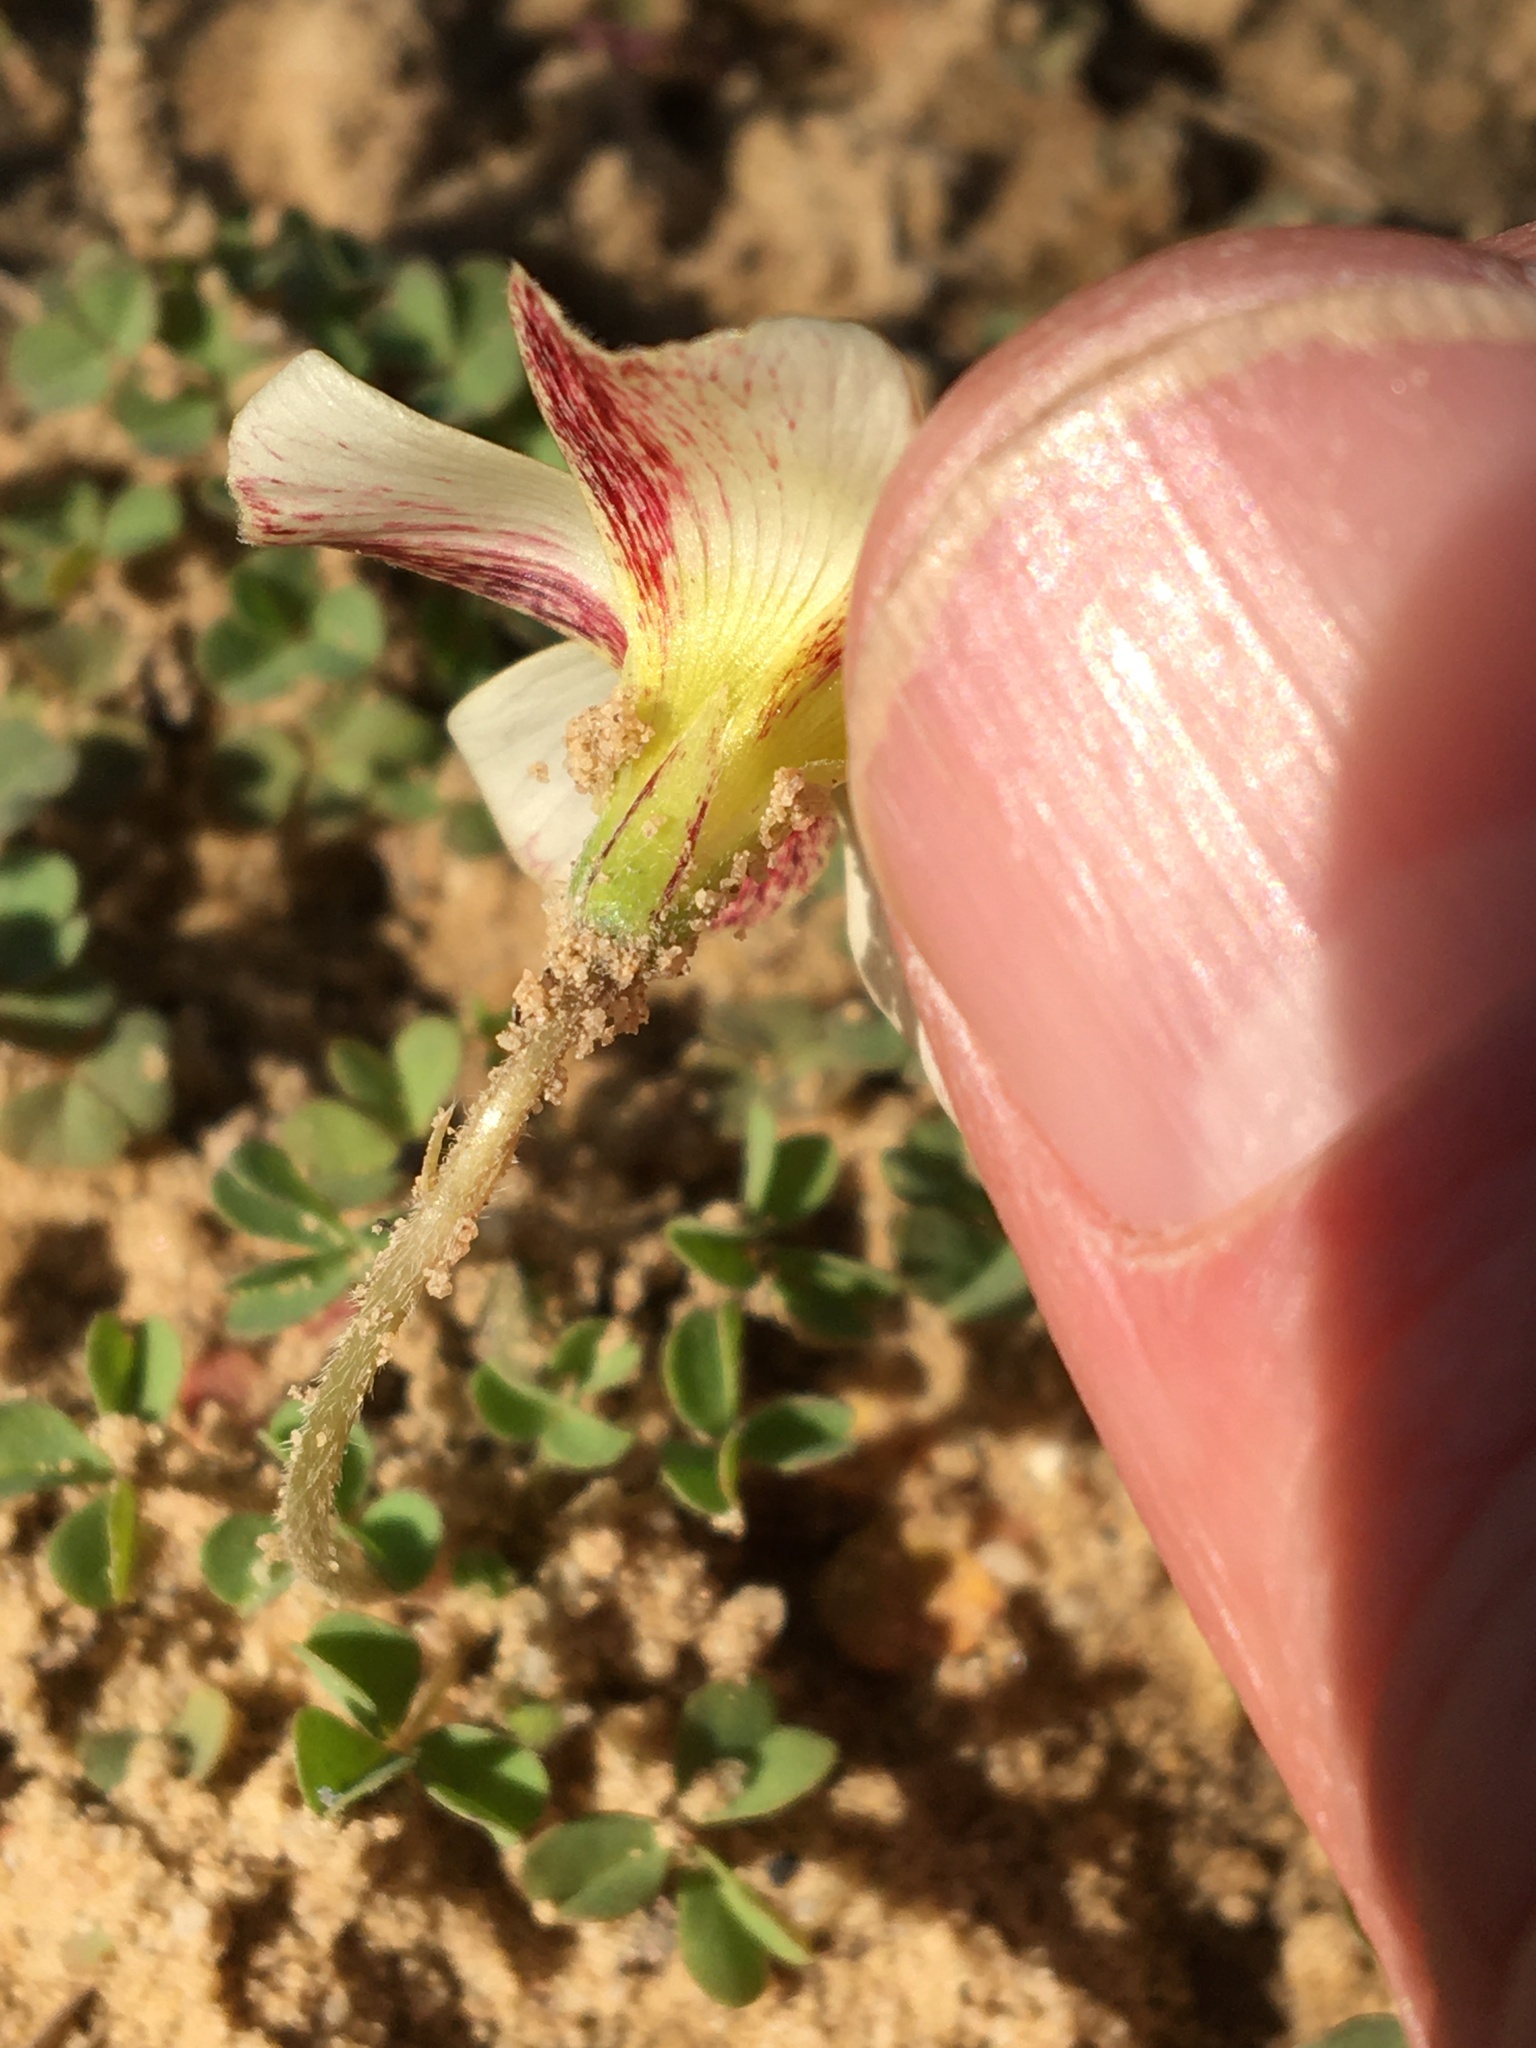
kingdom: Plantae
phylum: Tracheophyta
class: Magnoliopsida
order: Oxalidales
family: Oxalidaceae
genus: Oxalis
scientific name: Oxalis obtusa
